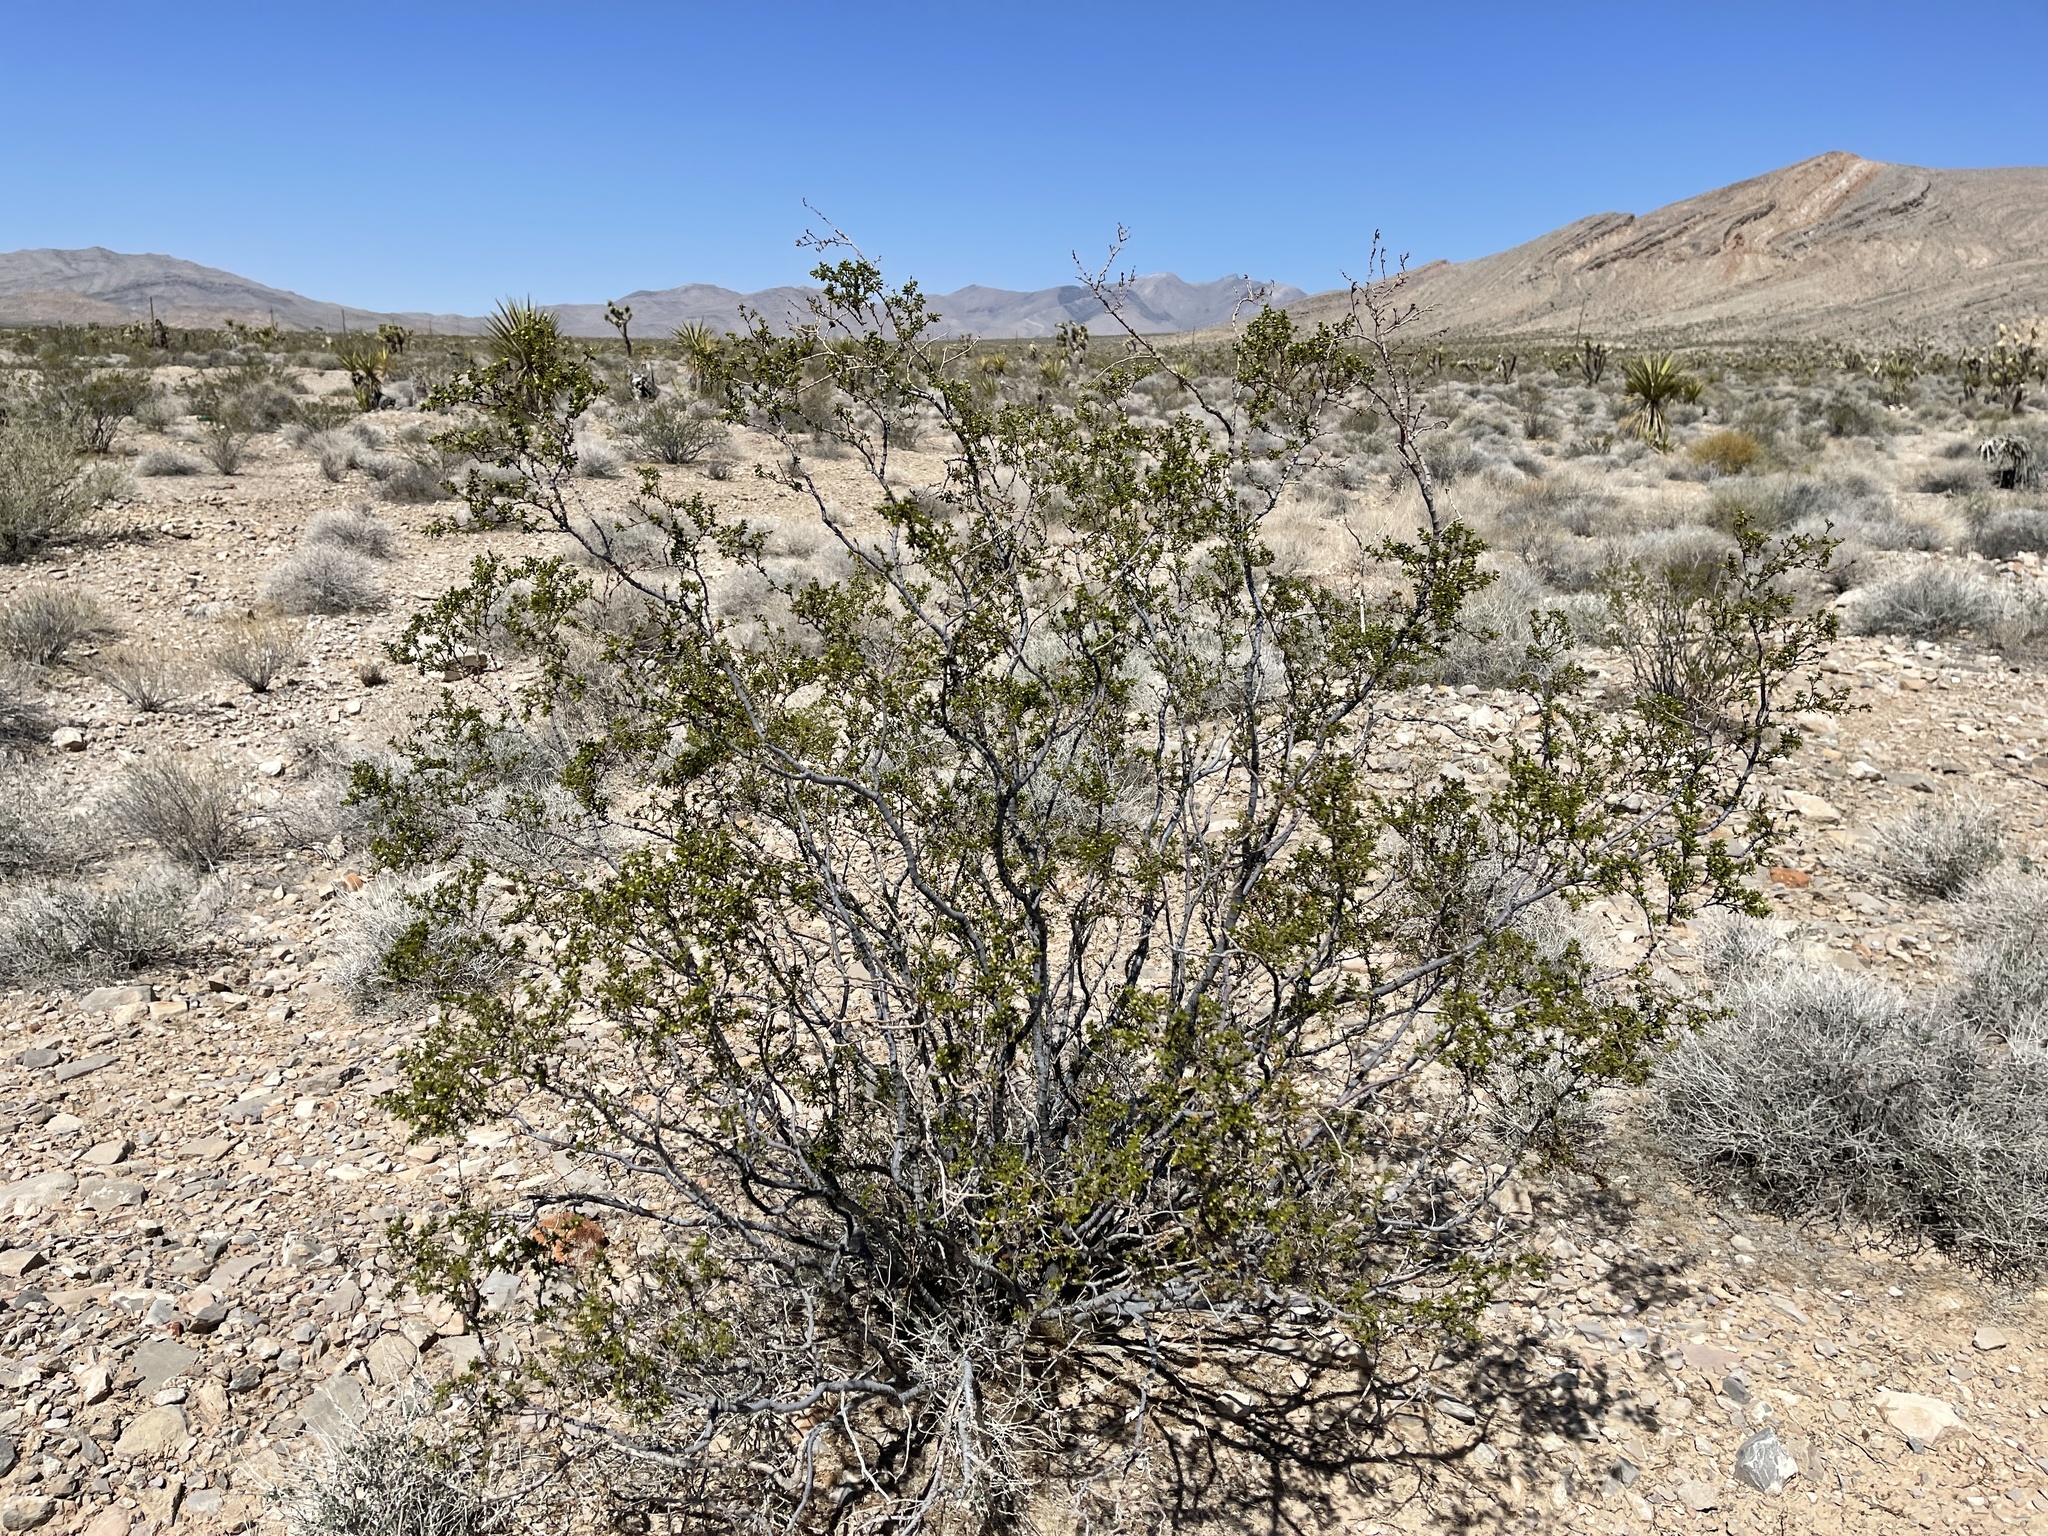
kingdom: Plantae
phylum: Tracheophyta
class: Magnoliopsida
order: Zygophyllales
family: Zygophyllaceae
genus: Larrea
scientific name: Larrea tridentata
